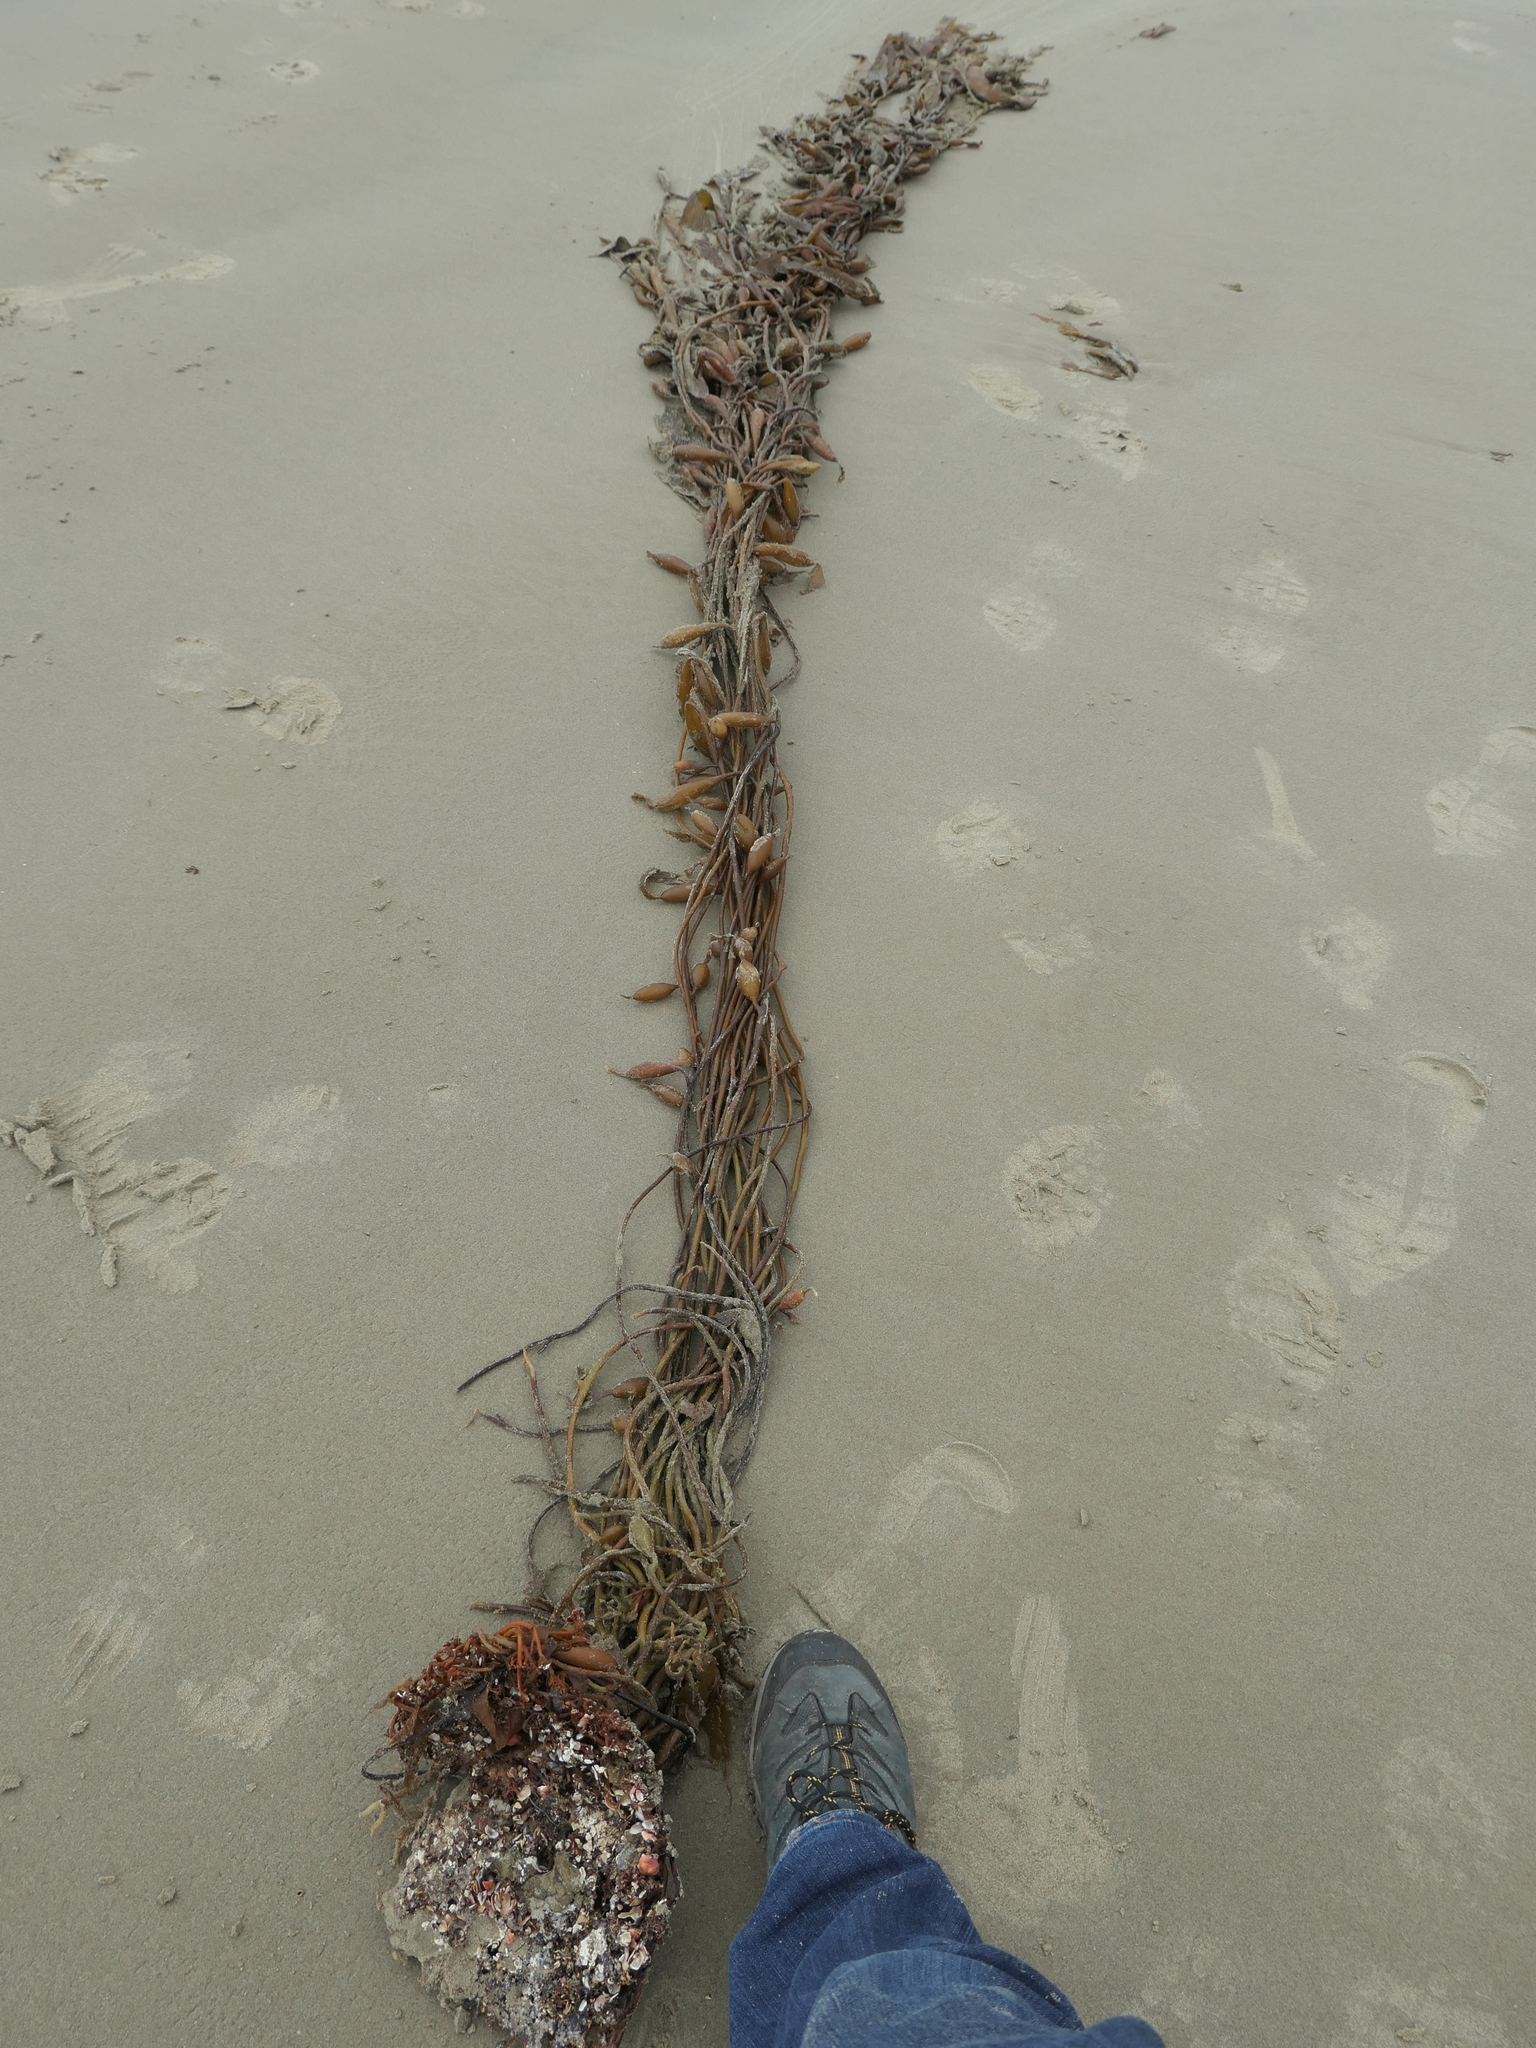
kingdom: Chromista
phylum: Ochrophyta
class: Phaeophyceae
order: Laminariales
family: Laminariaceae
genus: Macrocystis
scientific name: Macrocystis pyrifera
